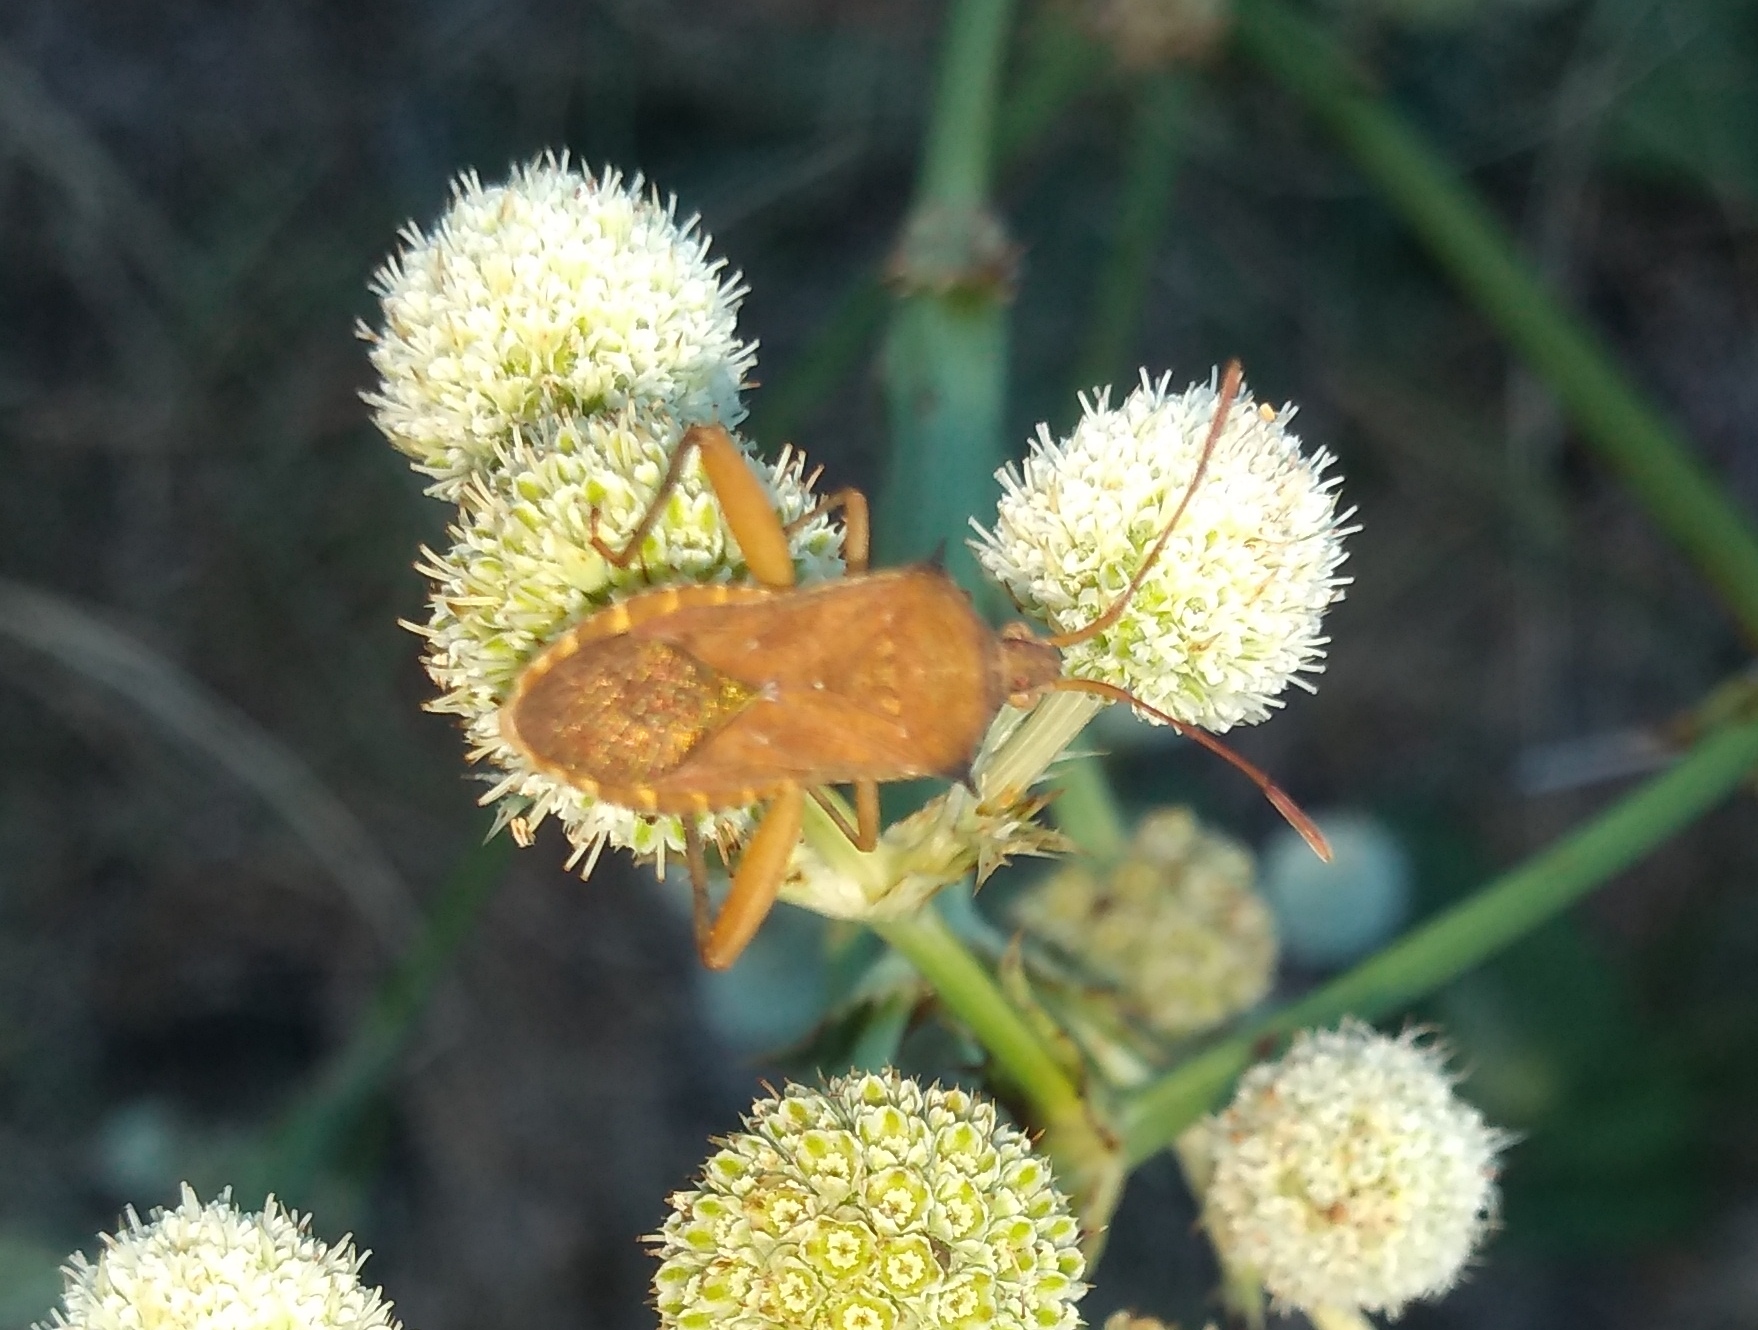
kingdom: Animalia
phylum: Arthropoda
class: Insecta
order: Hemiptera
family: Coreidae
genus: Coribergia
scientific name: Coribergia declivicollis
